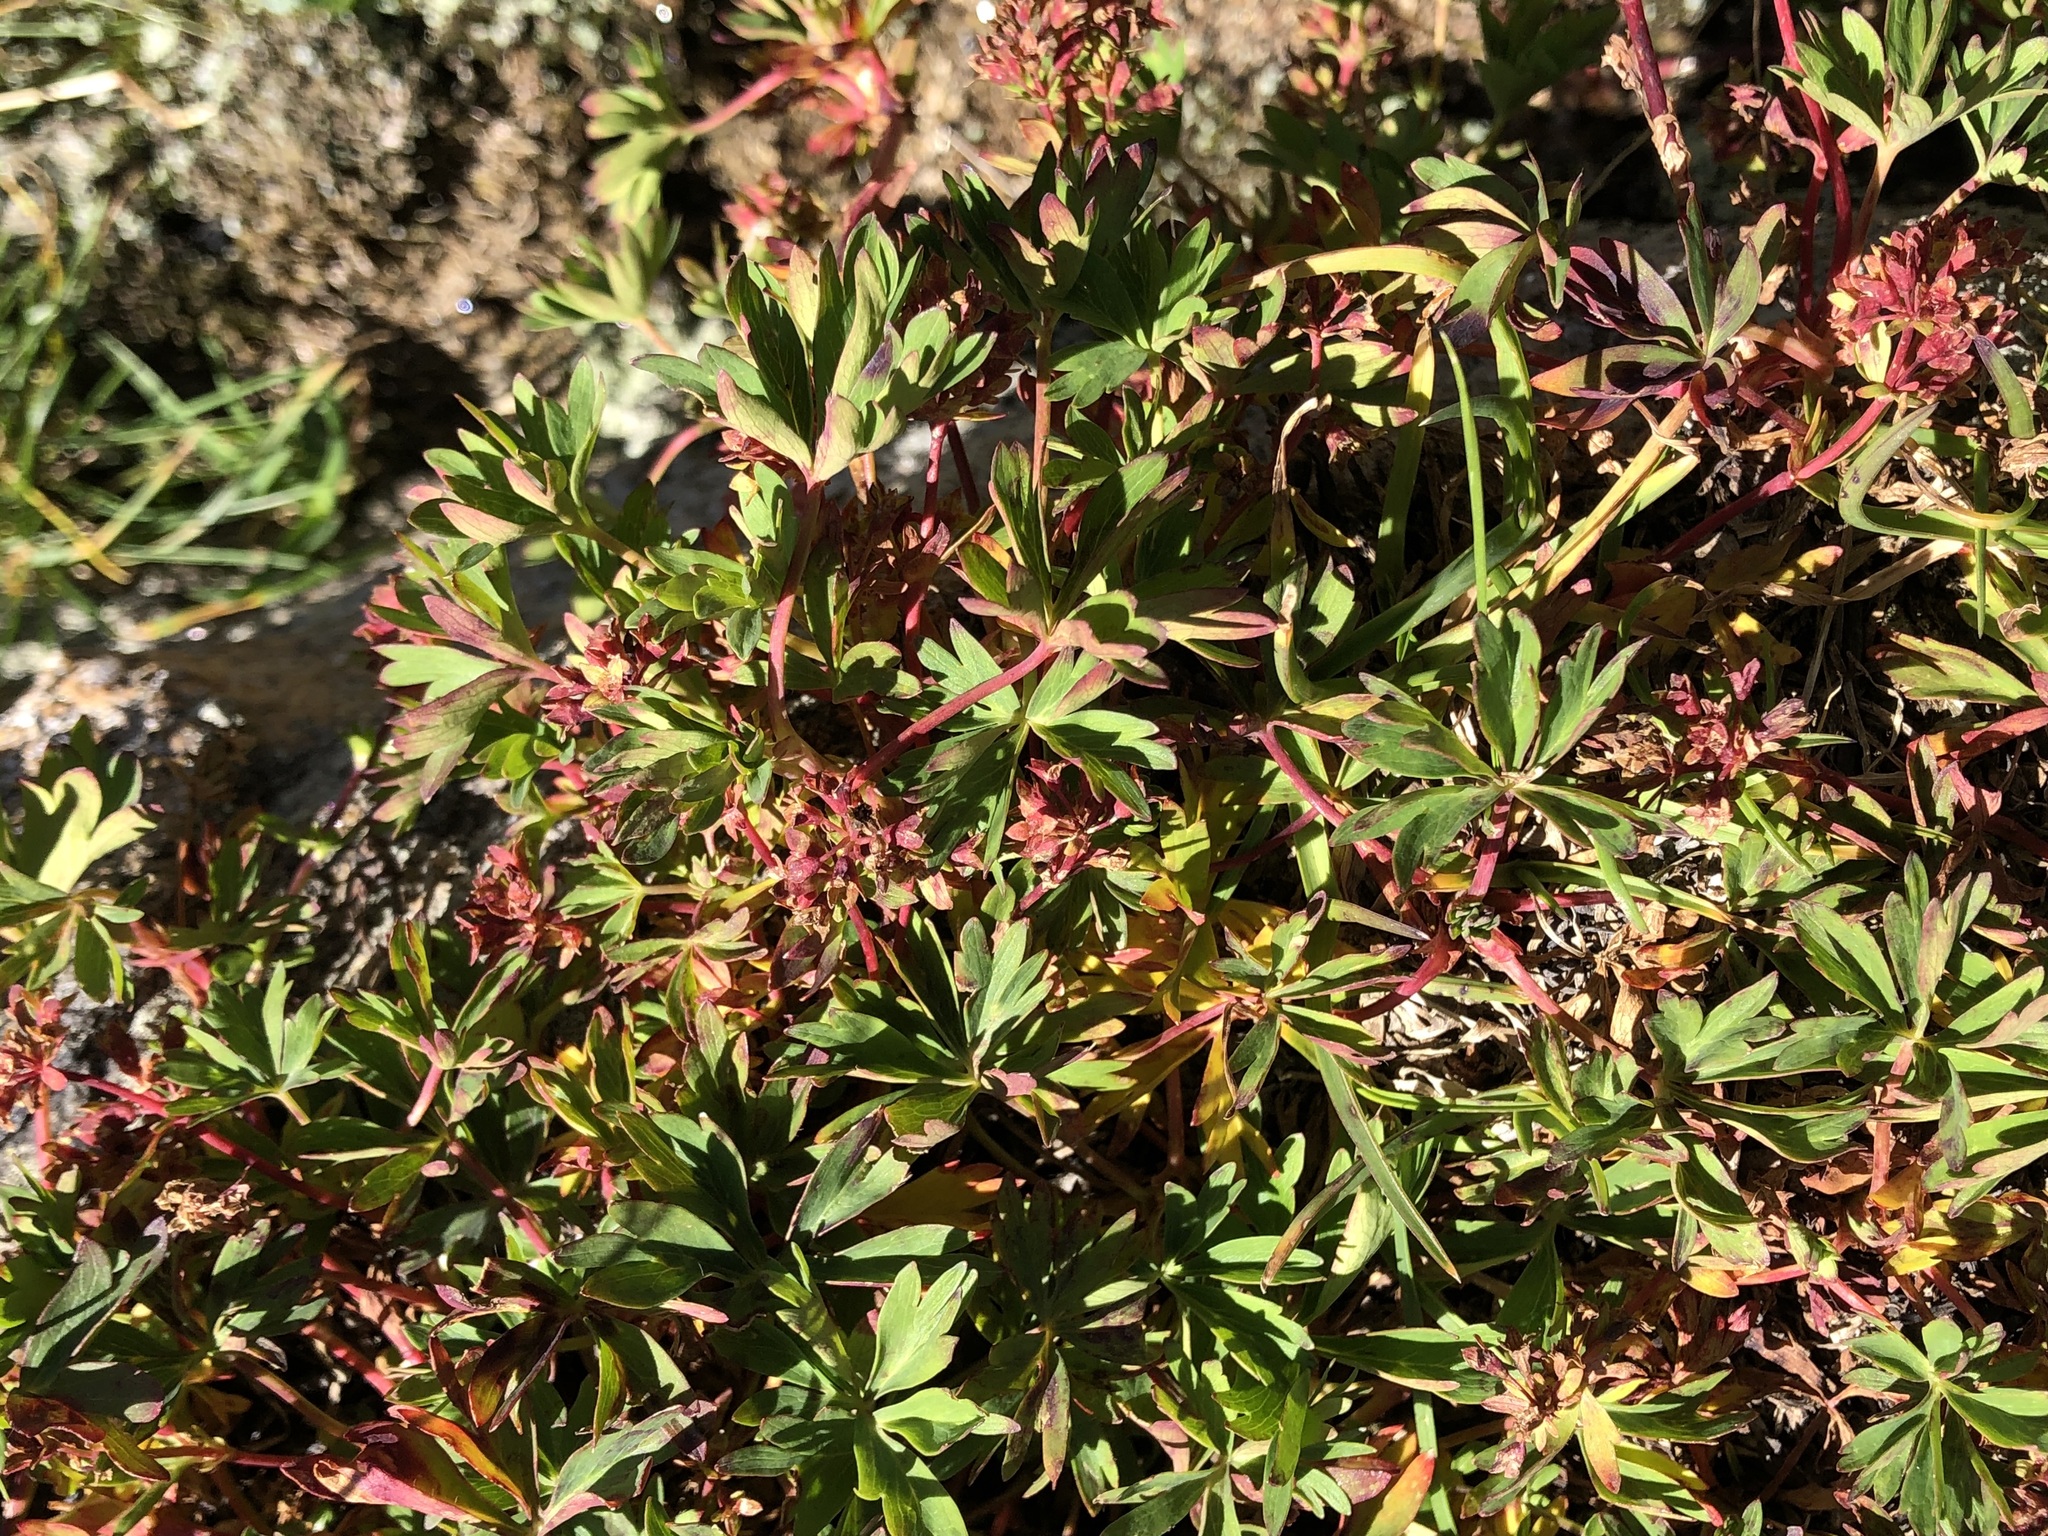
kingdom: Plantae
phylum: Tracheophyta
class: Magnoliopsida
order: Rosales
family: Rosaceae
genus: Alchemilla
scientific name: Alchemilla pentaphyllea
